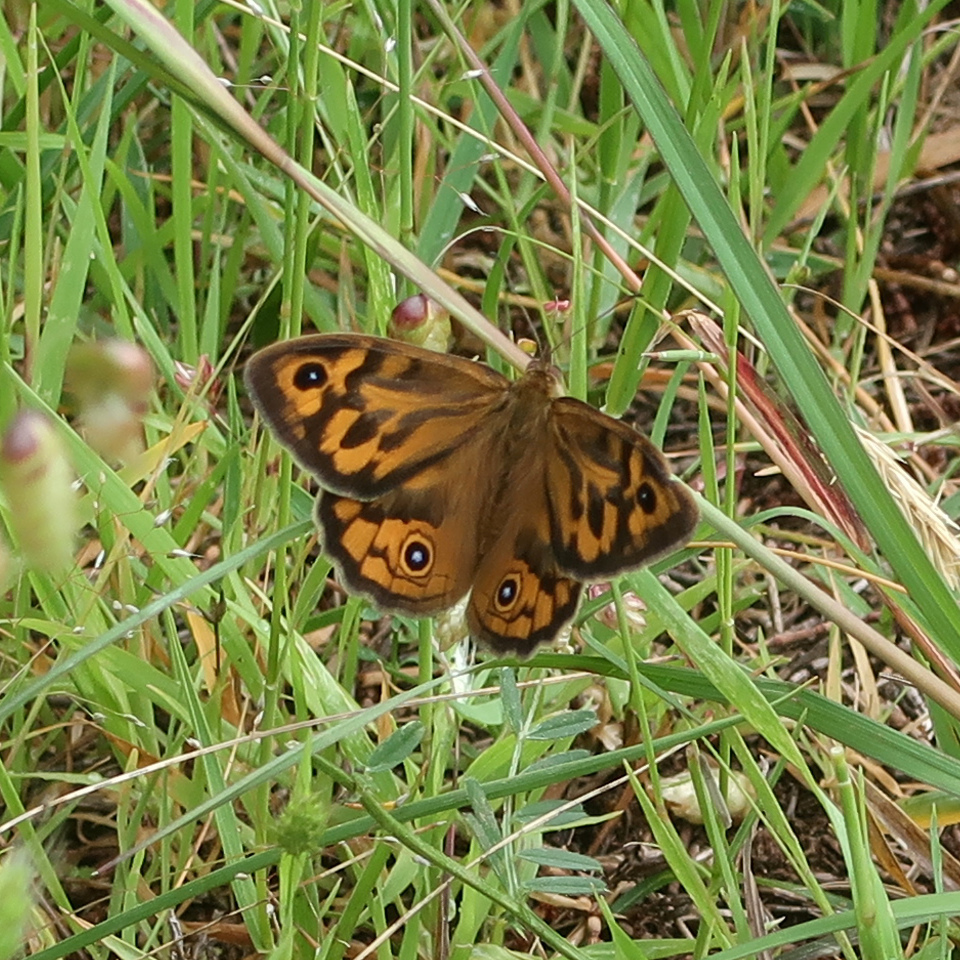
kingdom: Animalia
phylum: Arthropoda
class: Insecta
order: Lepidoptera
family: Nymphalidae
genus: Heteronympha
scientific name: Heteronympha merope
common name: Common brown
